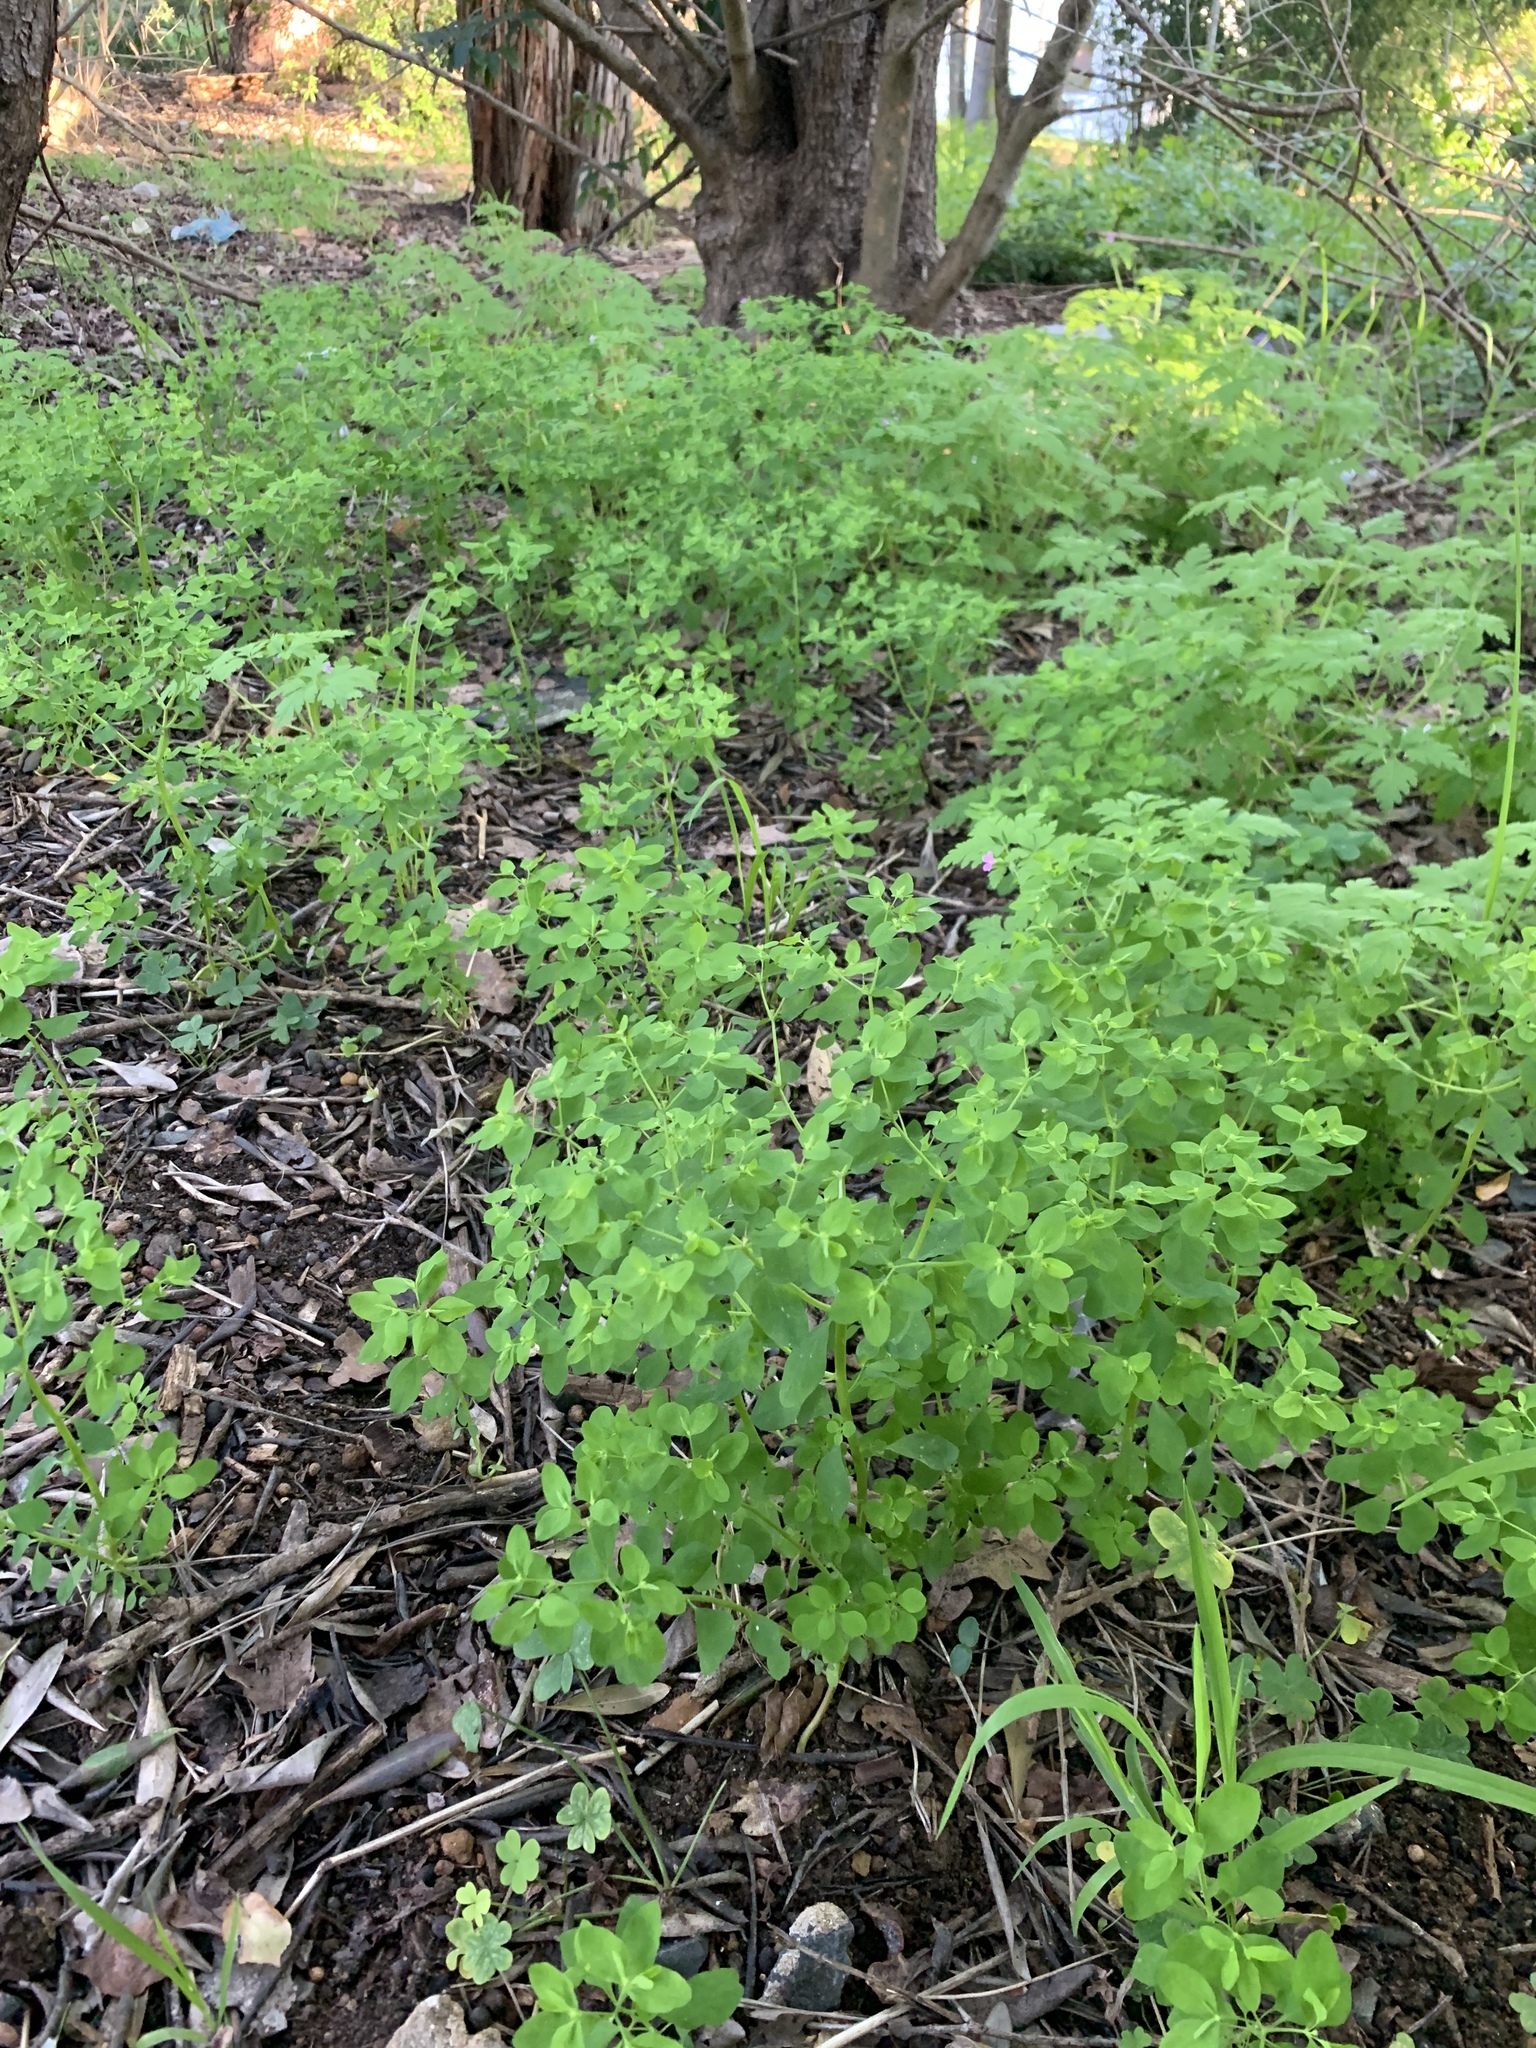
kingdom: Plantae
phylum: Tracheophyta
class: Magnoliopsida
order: Malpighiales
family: Euphorbiaceae
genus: Euphorbia
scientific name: Euphorbia peplus
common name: Petty spurge
